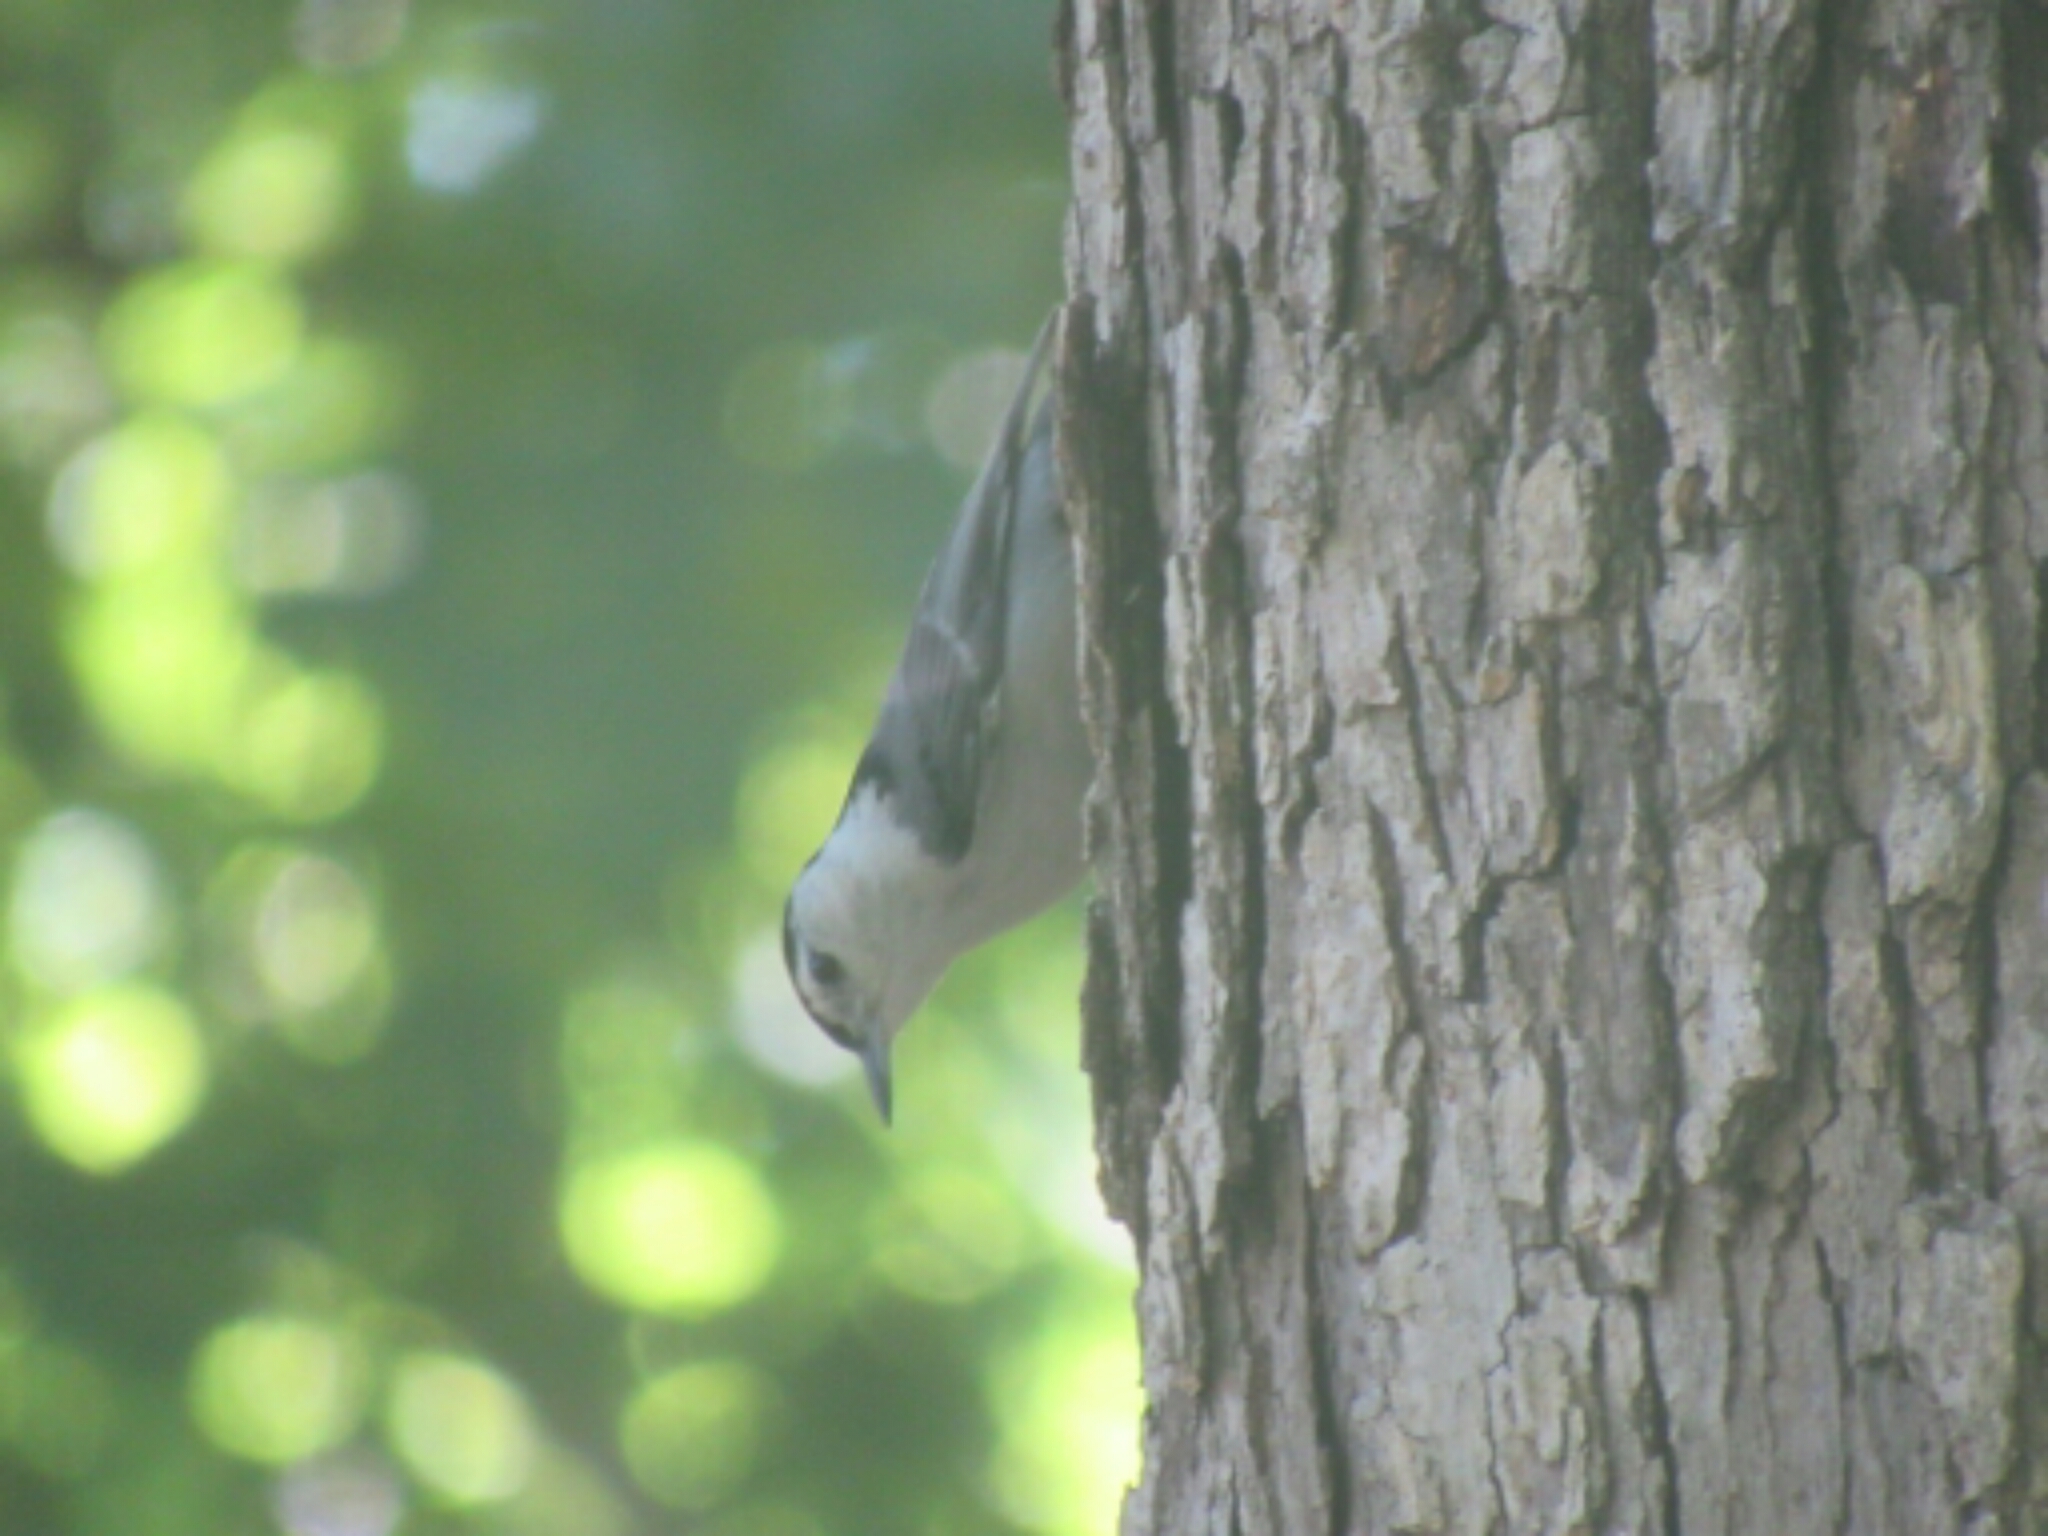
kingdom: Animalia
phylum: Chordata
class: Aves
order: Passeriformes
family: Sittidae
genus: Sitta
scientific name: Sitta carolinensis
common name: White-breasted nuthatch
